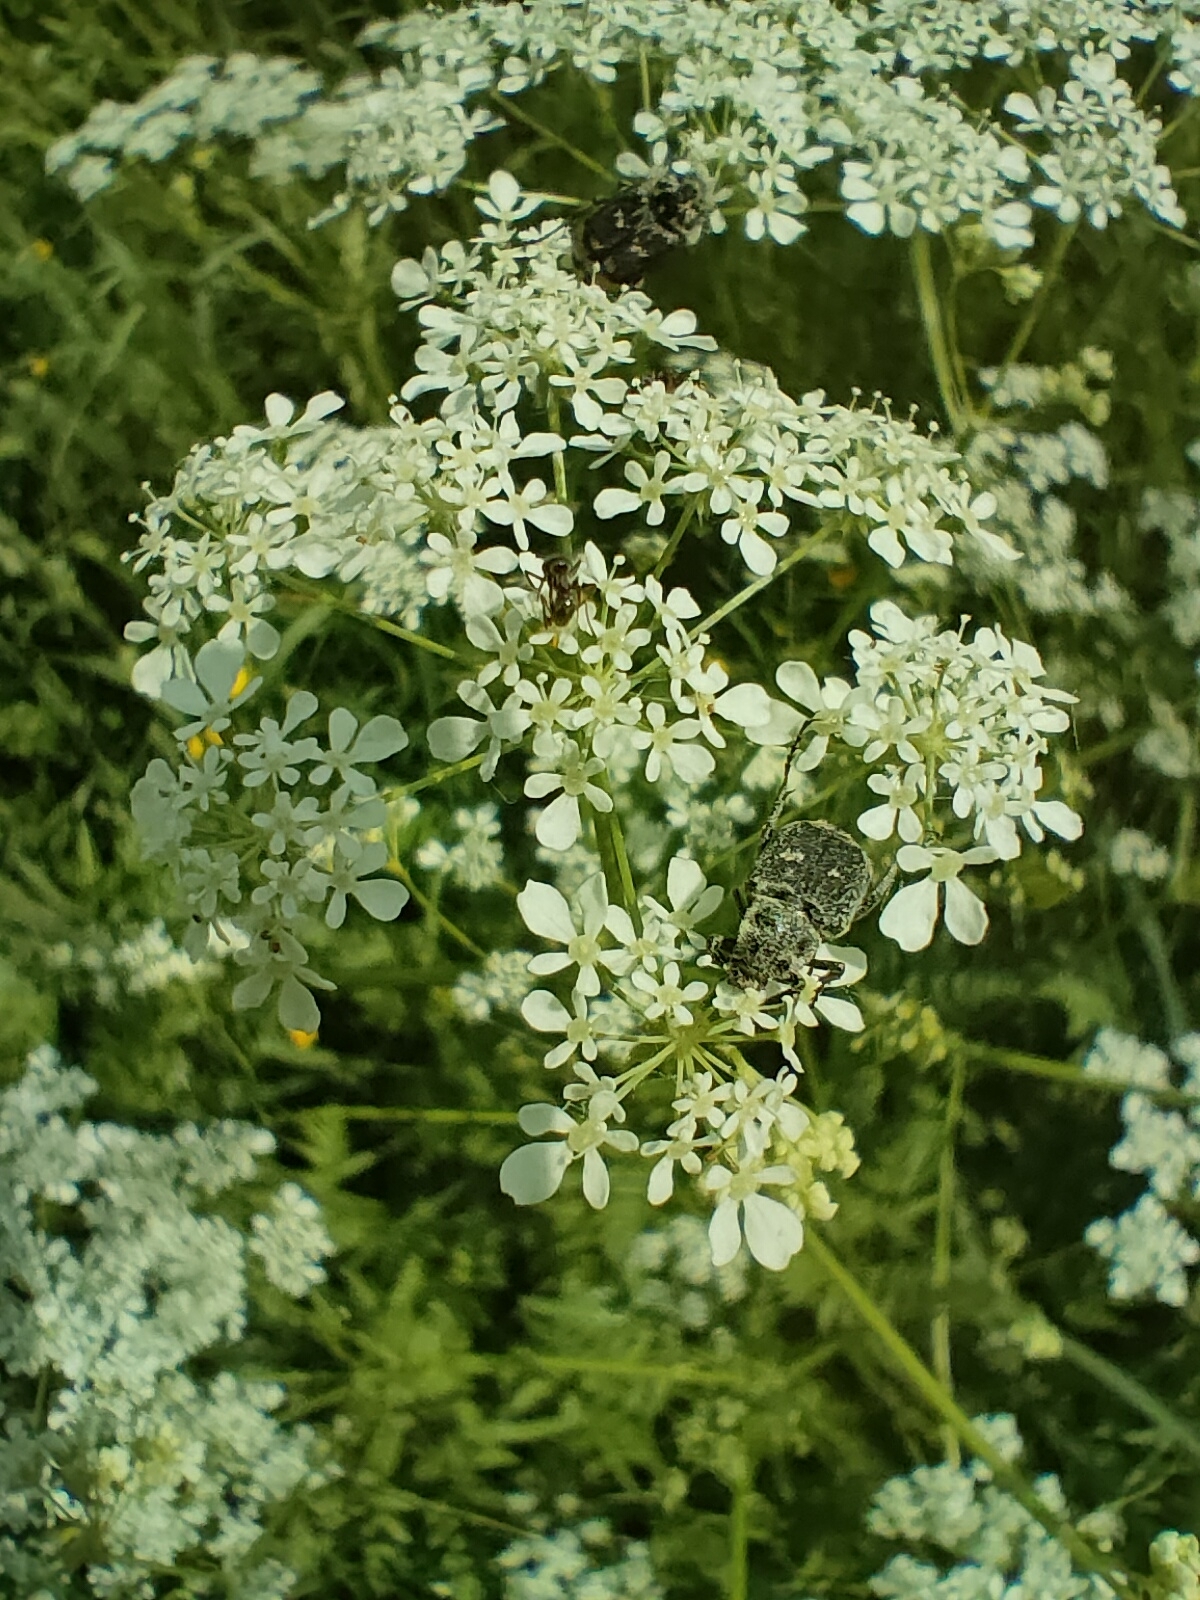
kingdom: Animalia
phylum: Arthropoda
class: Insecta
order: Coleoptera
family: Scarabaeidae
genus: Valgus
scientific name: Valgus hemipterus
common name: Bug flower chafer
